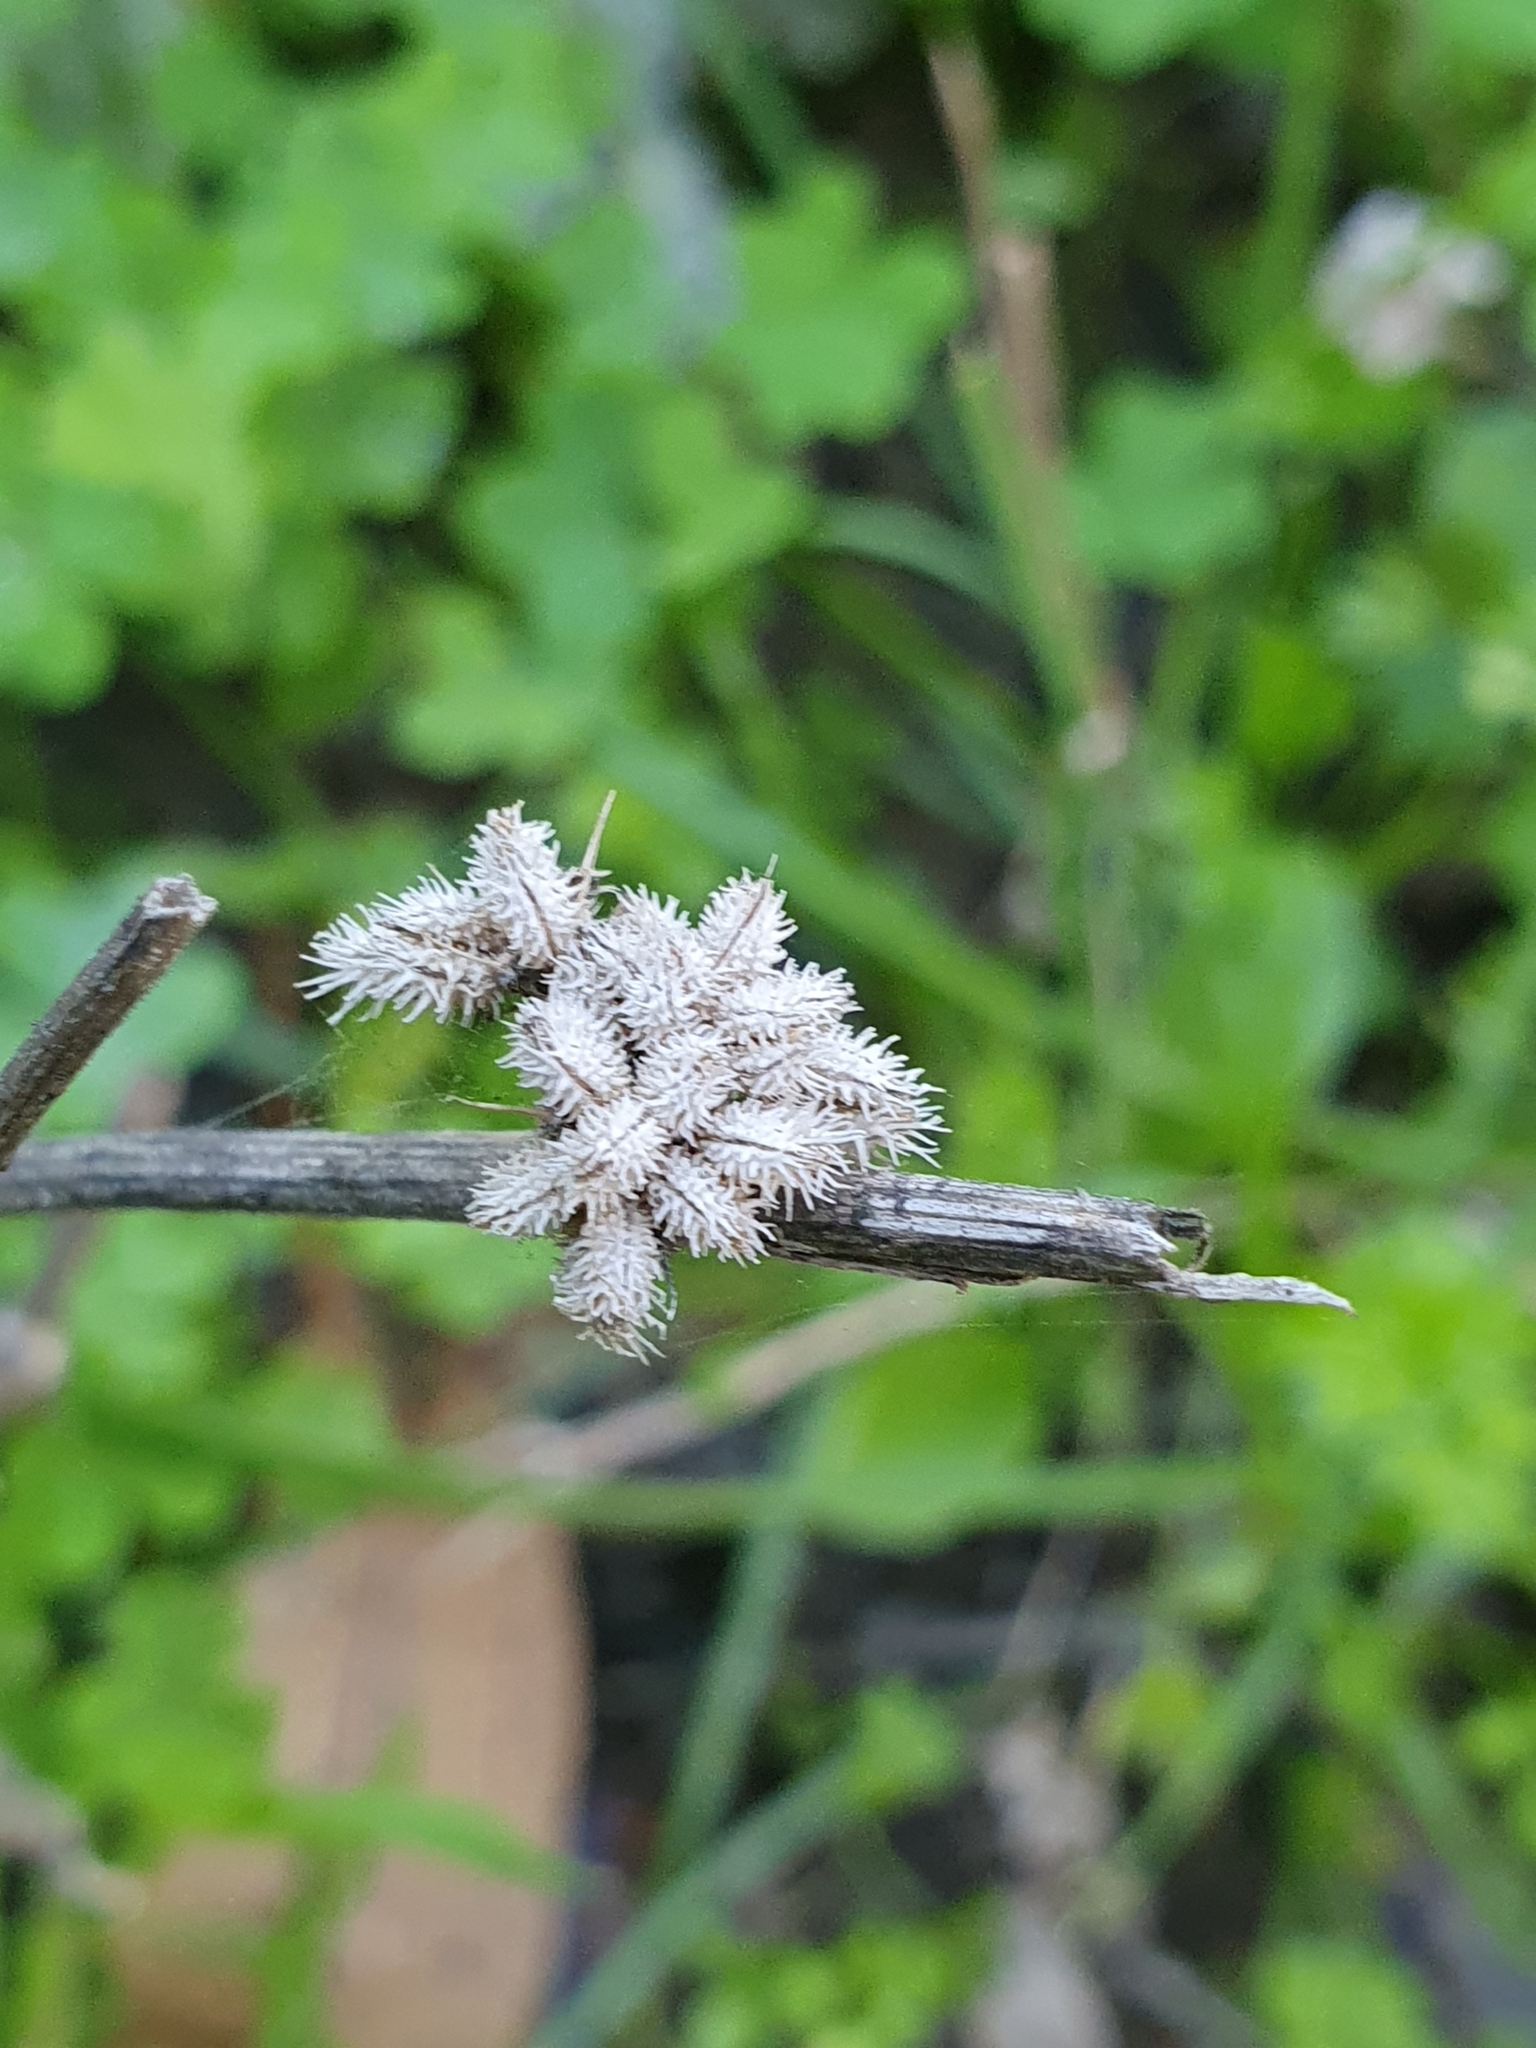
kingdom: Plantae
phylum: Tracheophyta
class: Magnoliopsida
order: Apiales
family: Apiaceae
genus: Torilis
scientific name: Torilis nodosa
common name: Knotted hedge-parsley
